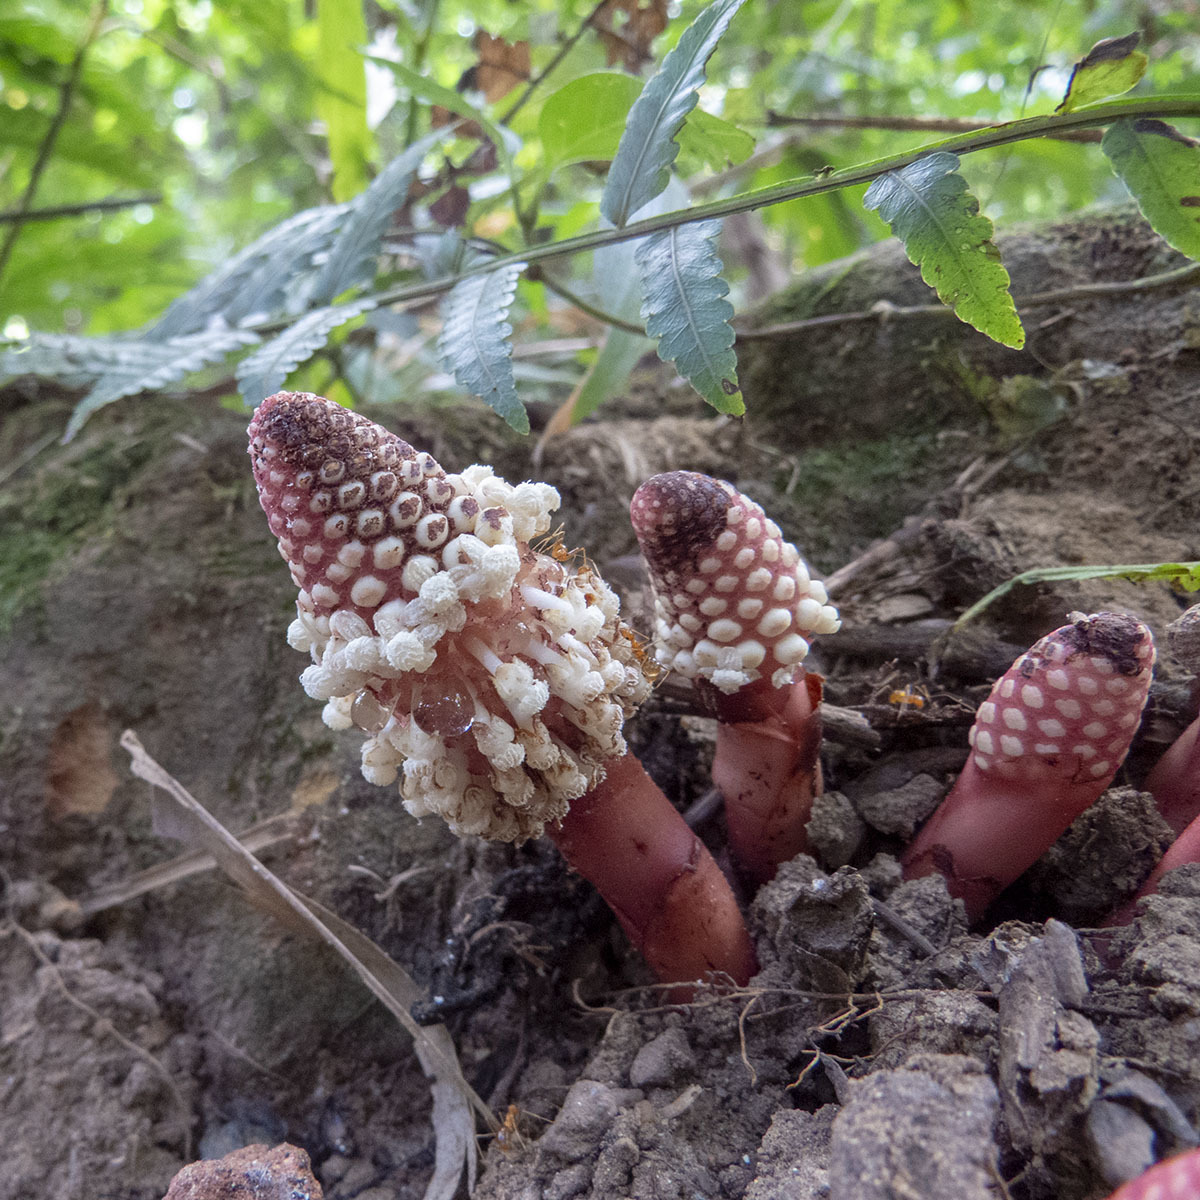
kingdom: Plantae
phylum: Tracheophyta
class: Magnoliopsida
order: Santalales
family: Balanophoraceae
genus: Balanophora
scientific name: Balanophora dioica
